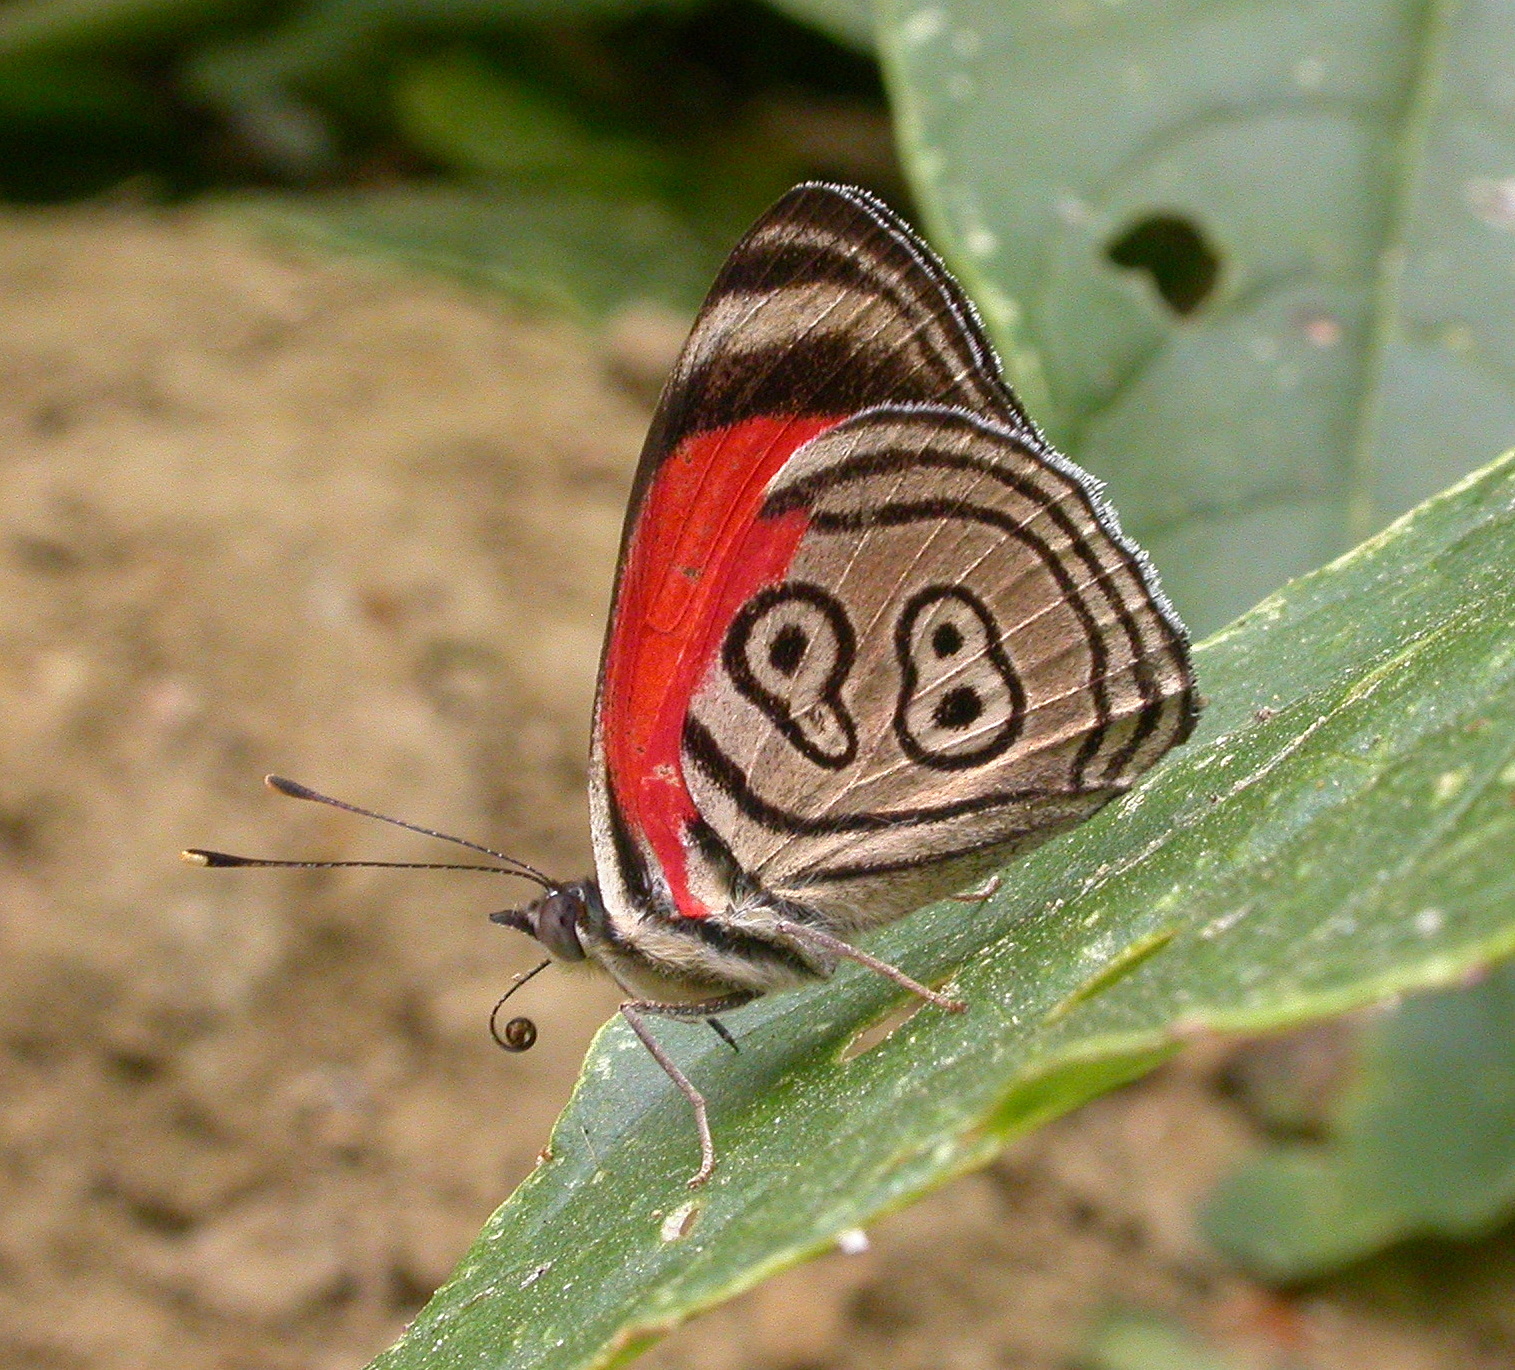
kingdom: Animalia
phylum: Arthropoda
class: Insecta
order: Lepidoptera
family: Nymphalidae
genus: Diaethria
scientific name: Diaethria clymena
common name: Widespread eighty-eight
